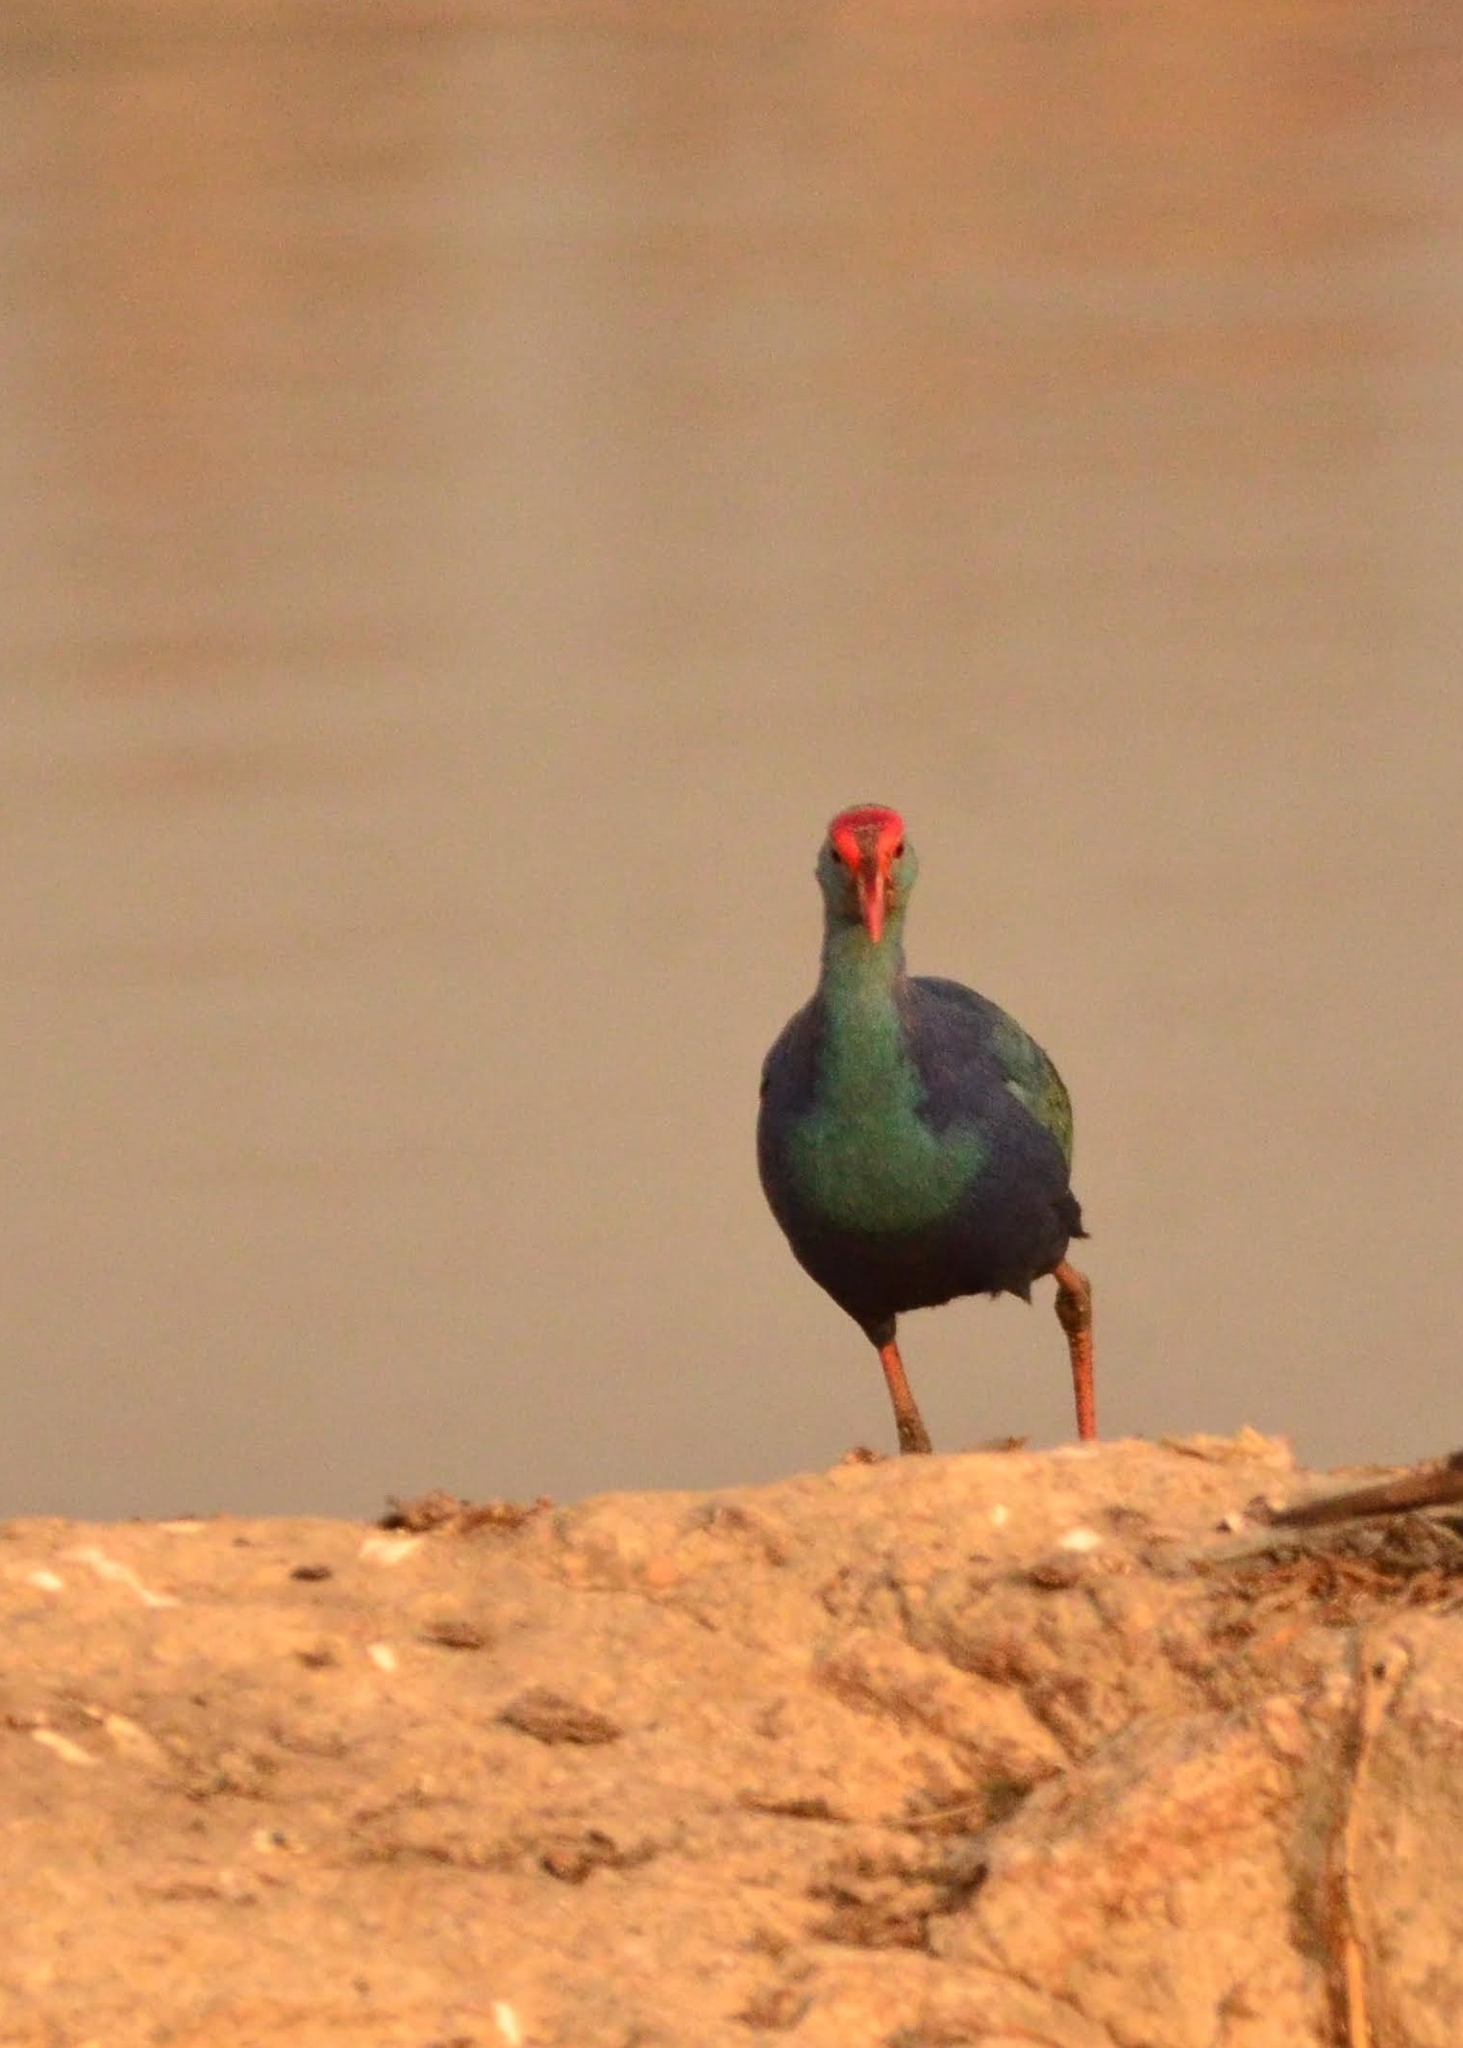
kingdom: Animalia
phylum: Chordata
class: Aves
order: Gruiformes
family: Rallidae
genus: Porphyrio
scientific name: Porphyrio porphyrio
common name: Purple swamphen
